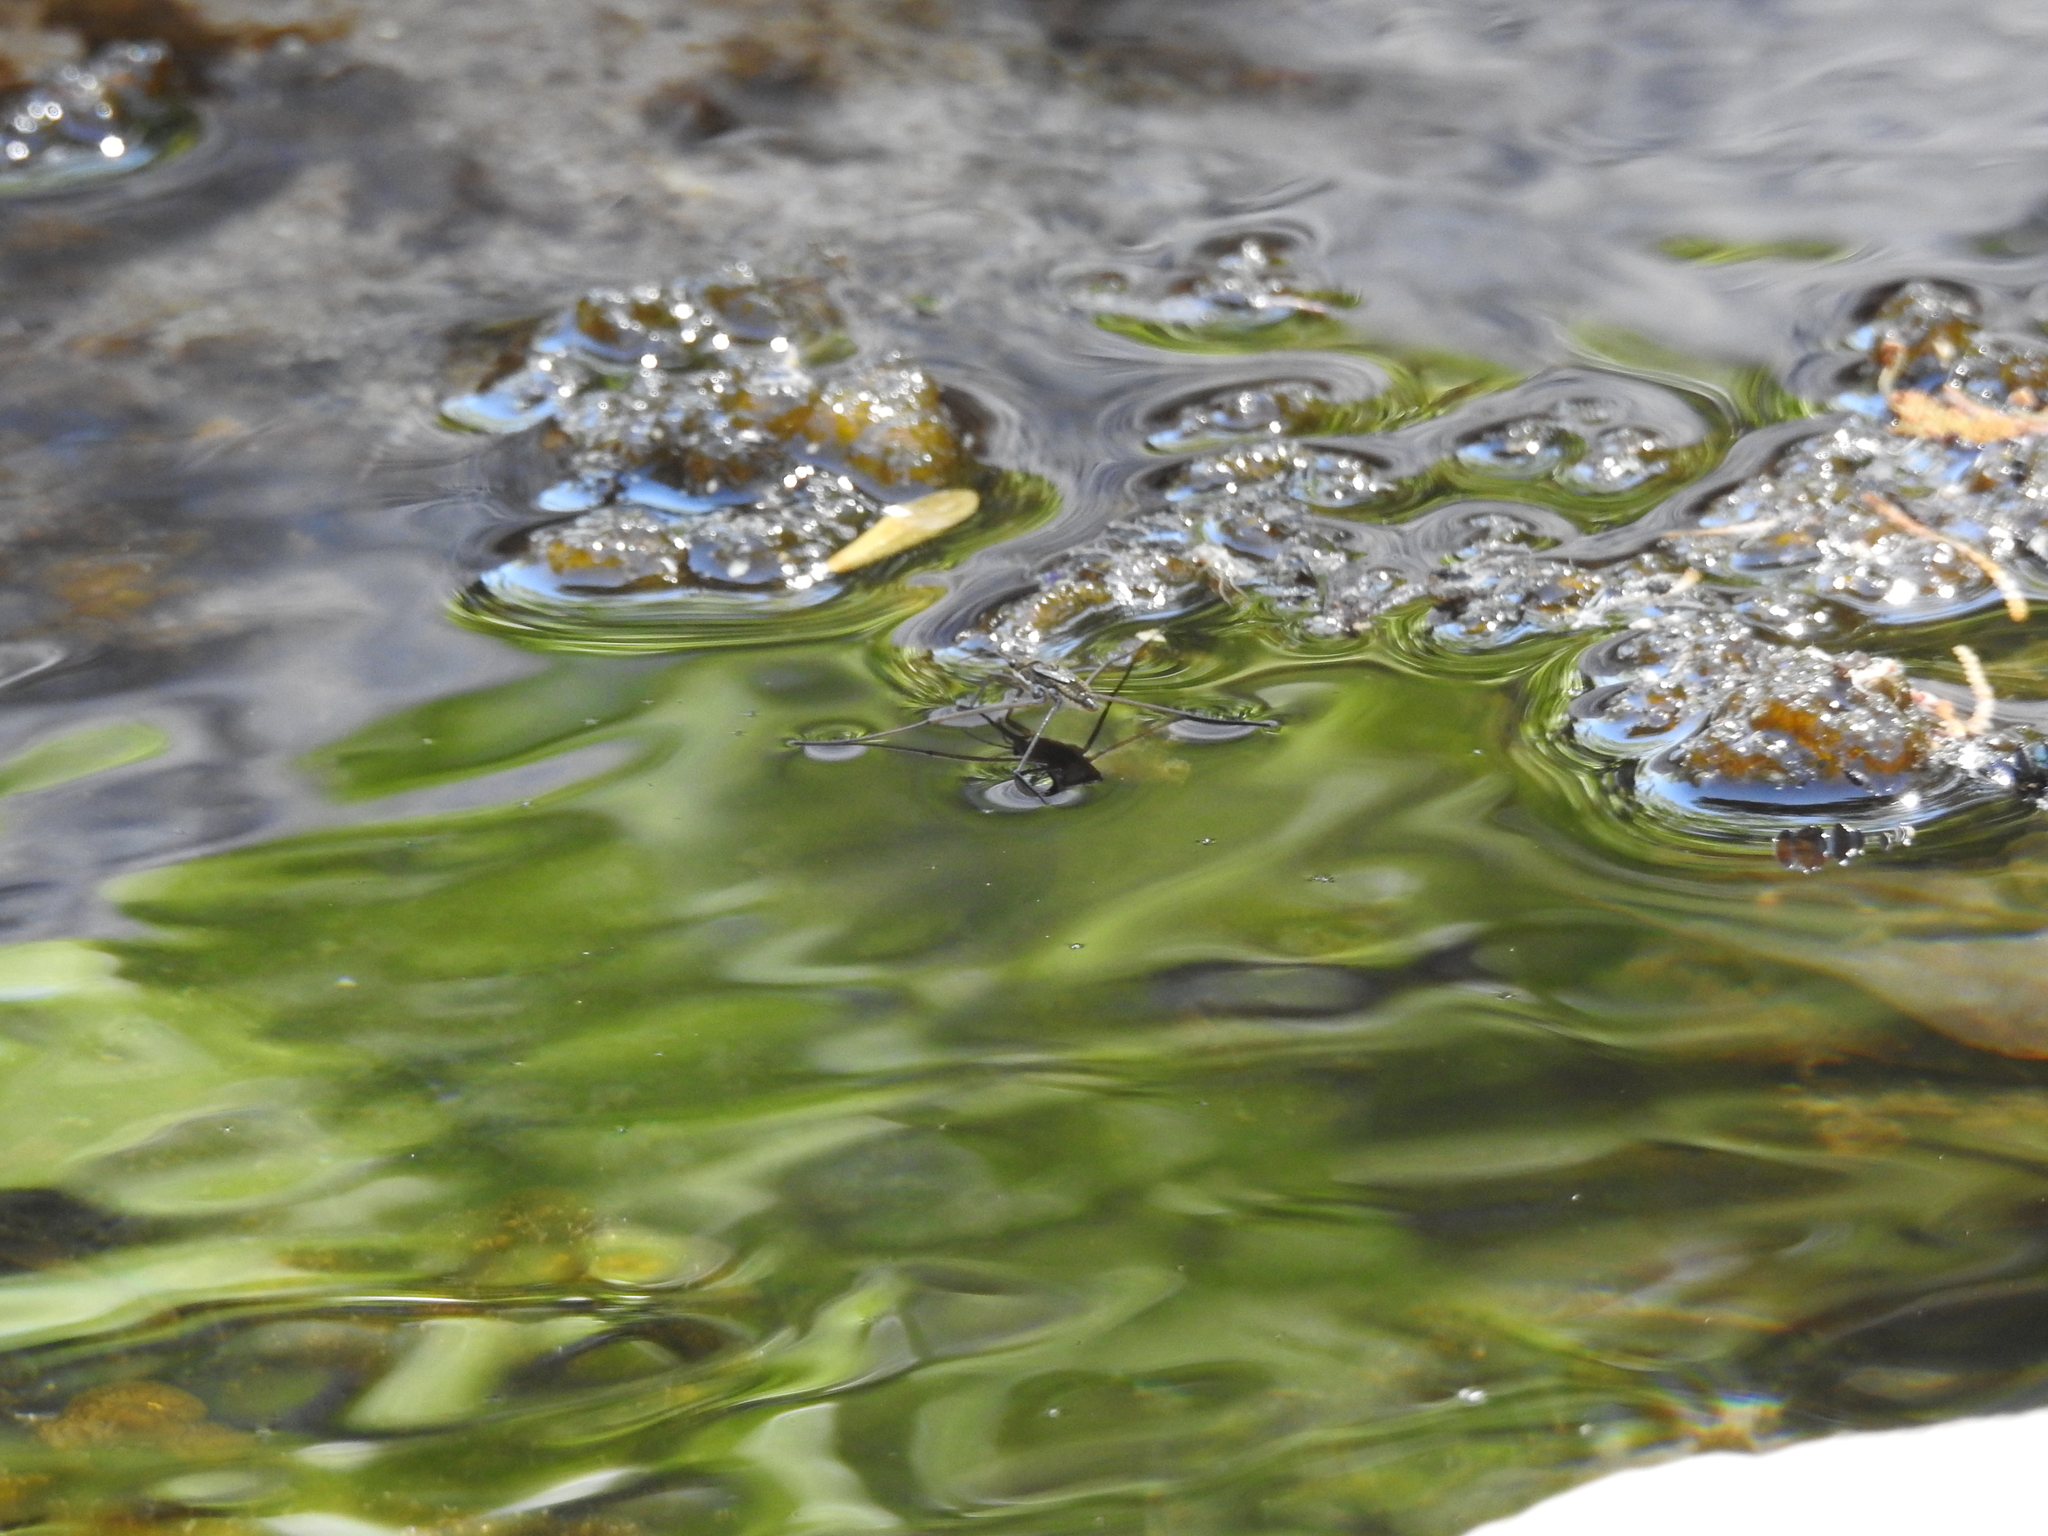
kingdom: Animalia
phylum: Arthropoda
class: Insecta
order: Hemiptera
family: Gerridae
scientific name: Gerridae
